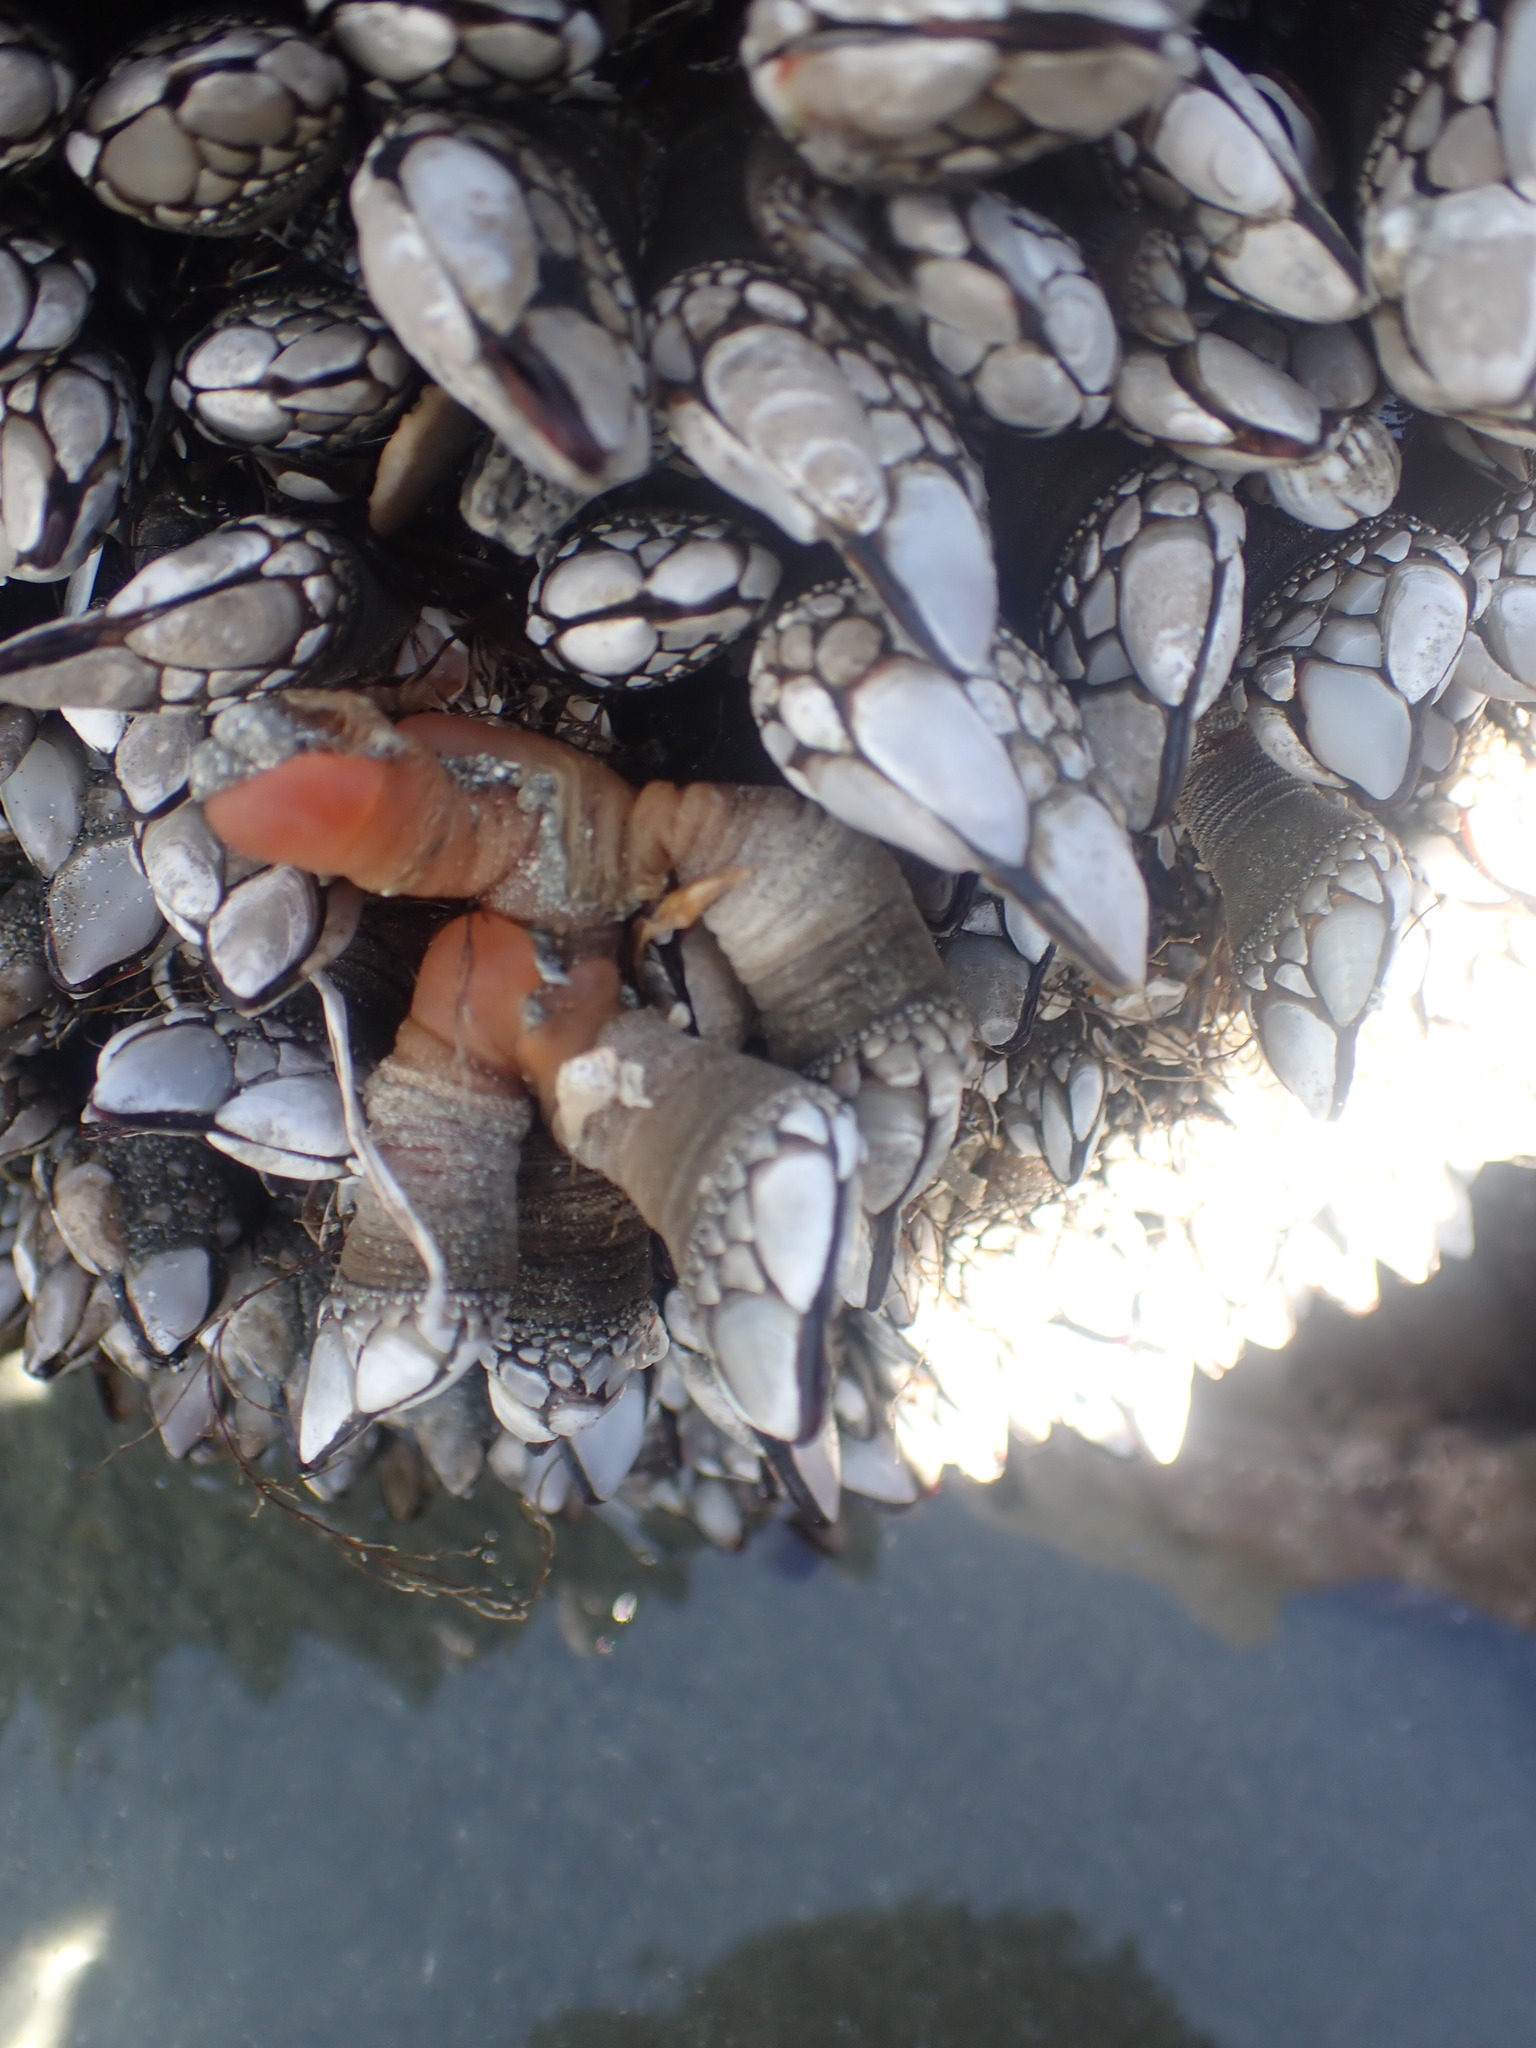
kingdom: Animalia
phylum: Arthropoda
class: Maxillopoda
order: Pedunculata
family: Pollicipedidae
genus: Pollicipes
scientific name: Pollicipes polymerus
